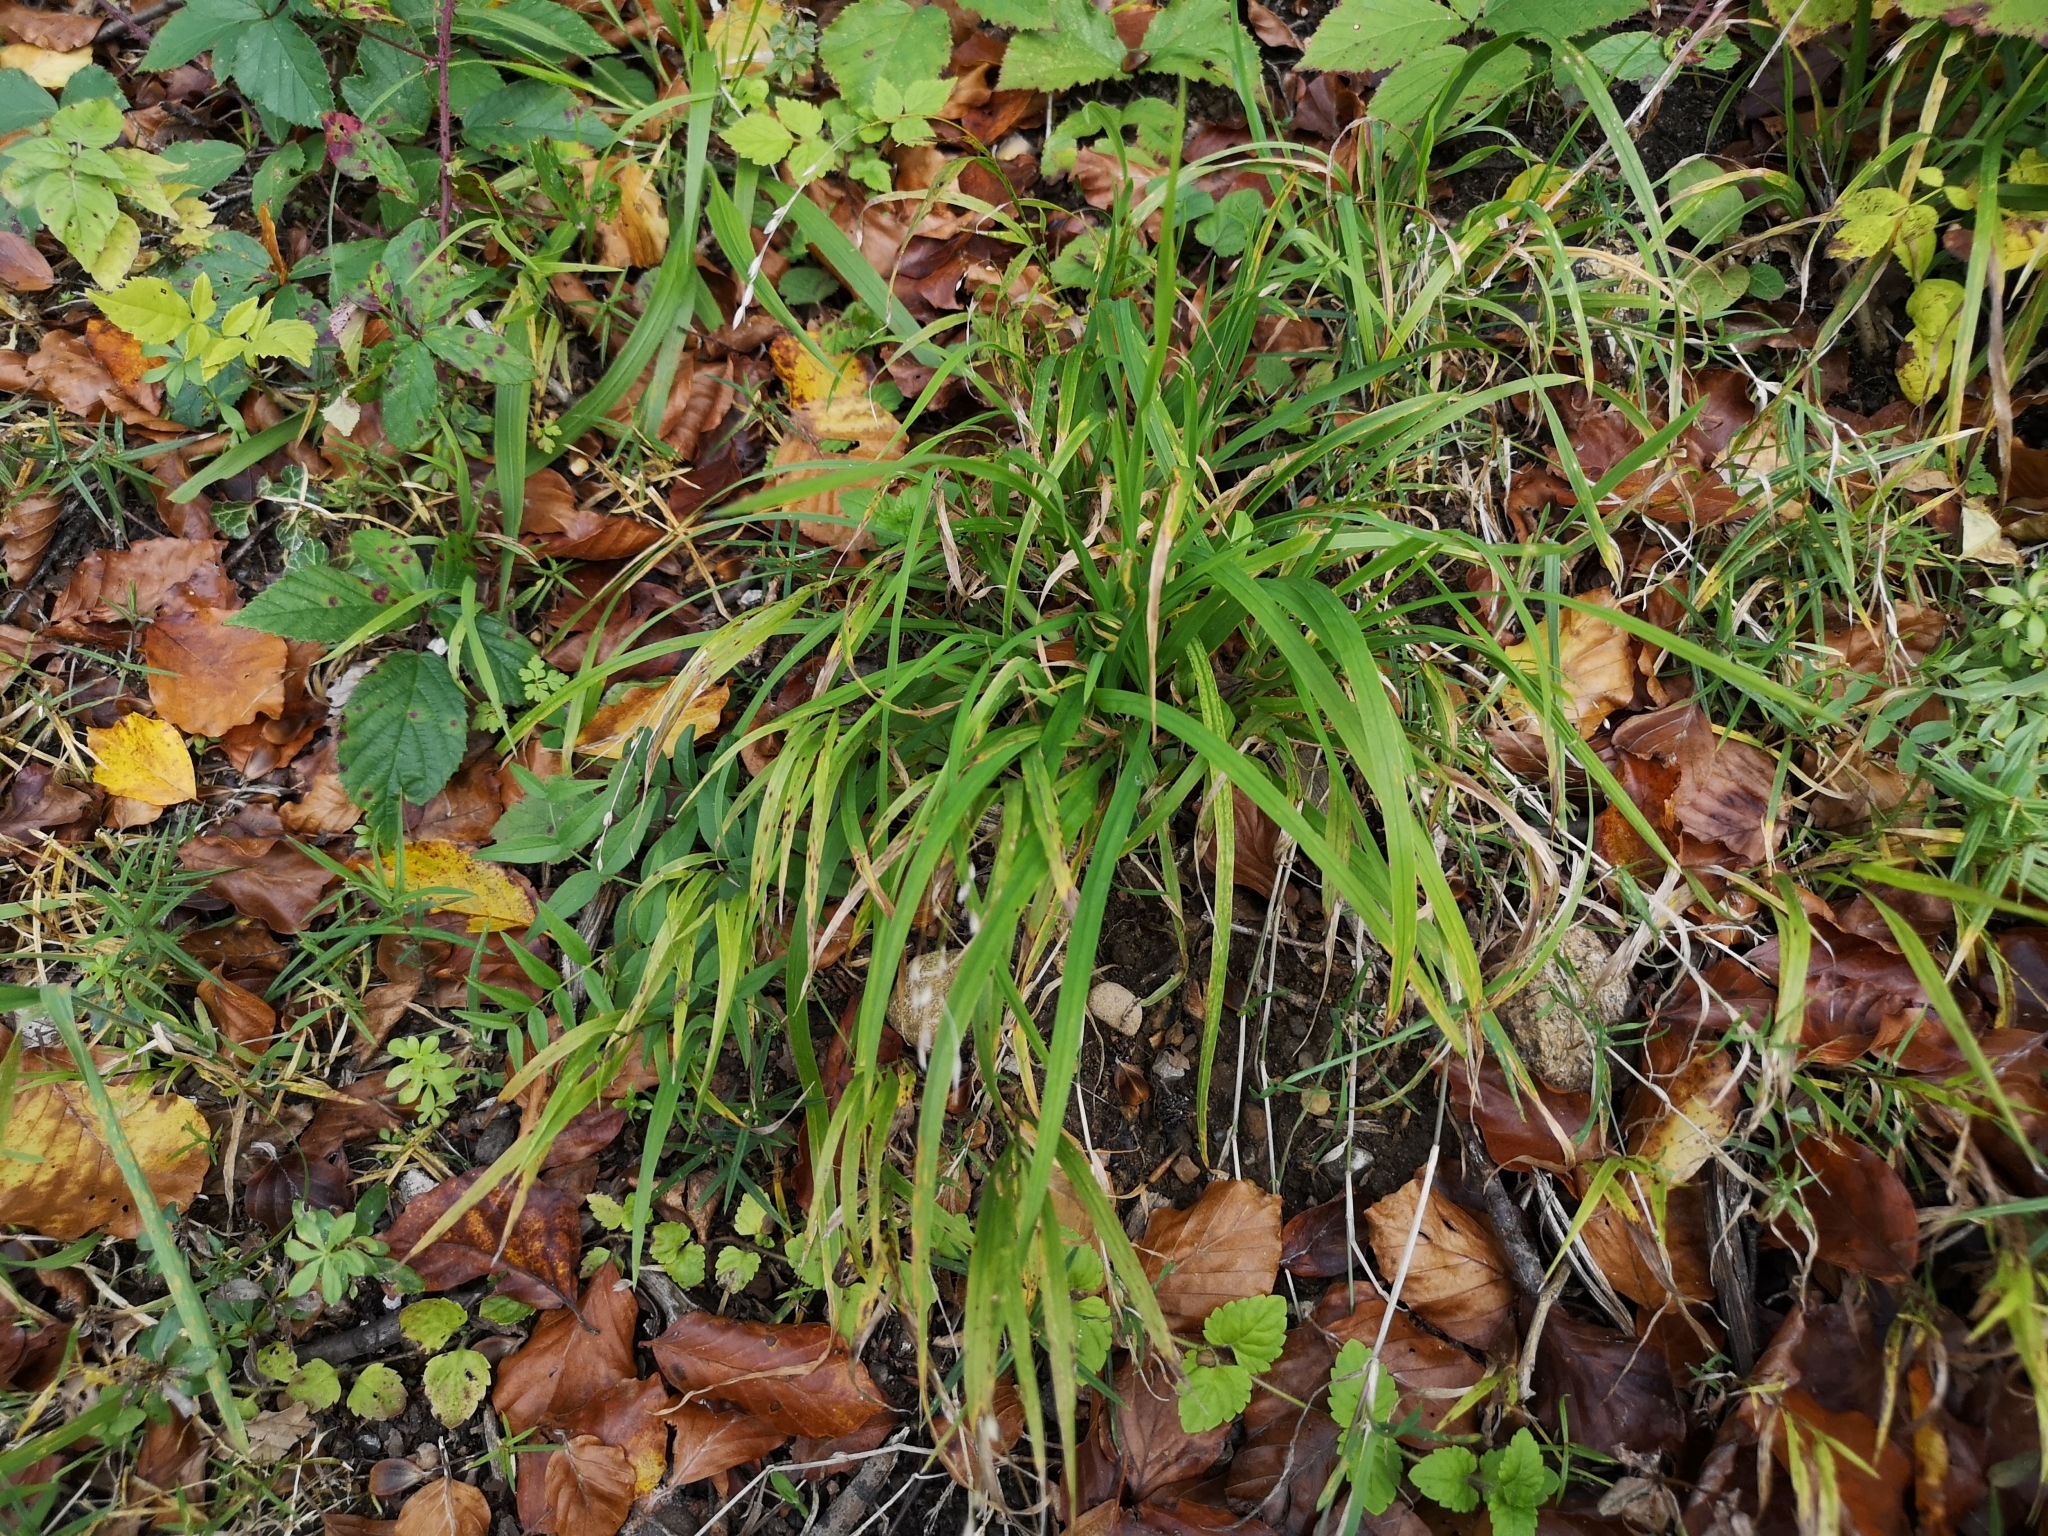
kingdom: Plantae
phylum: Tracheophyta
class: Liliopsida
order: Poales
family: Poaceae
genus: Melica
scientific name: Melica uniflora
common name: Wood melick
